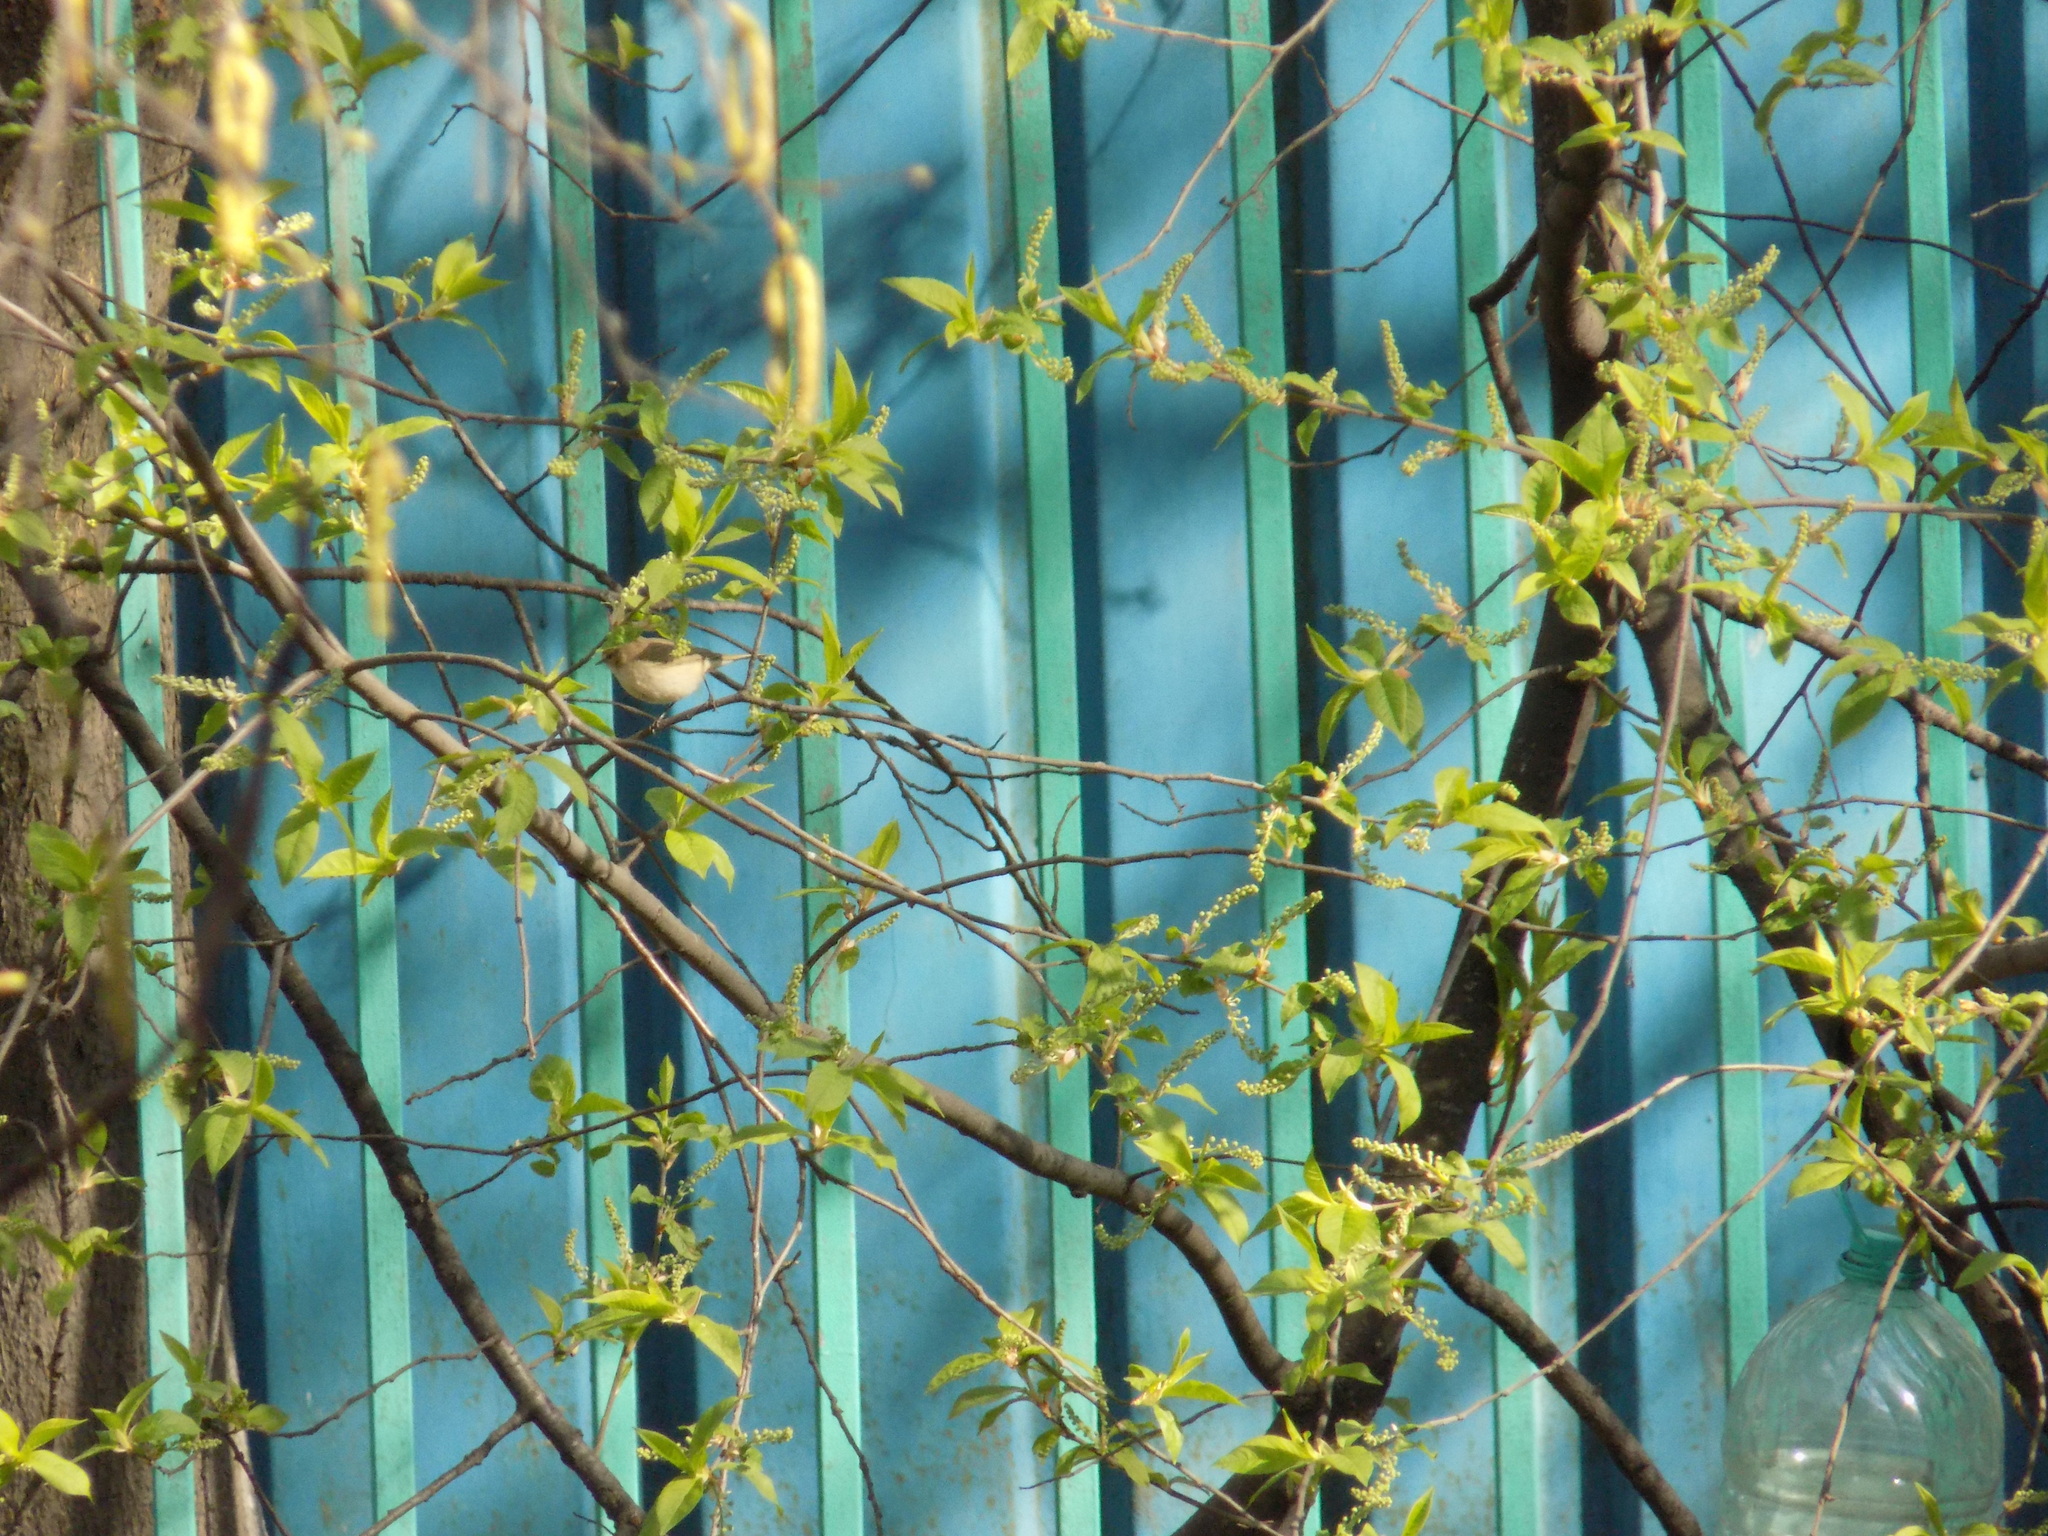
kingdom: Animalia
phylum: Chordata
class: Aves
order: Passeriformes
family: Phylloscopidae
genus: Phylloscopus
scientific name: Phylloscopus collybita
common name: Common chiffchaff
